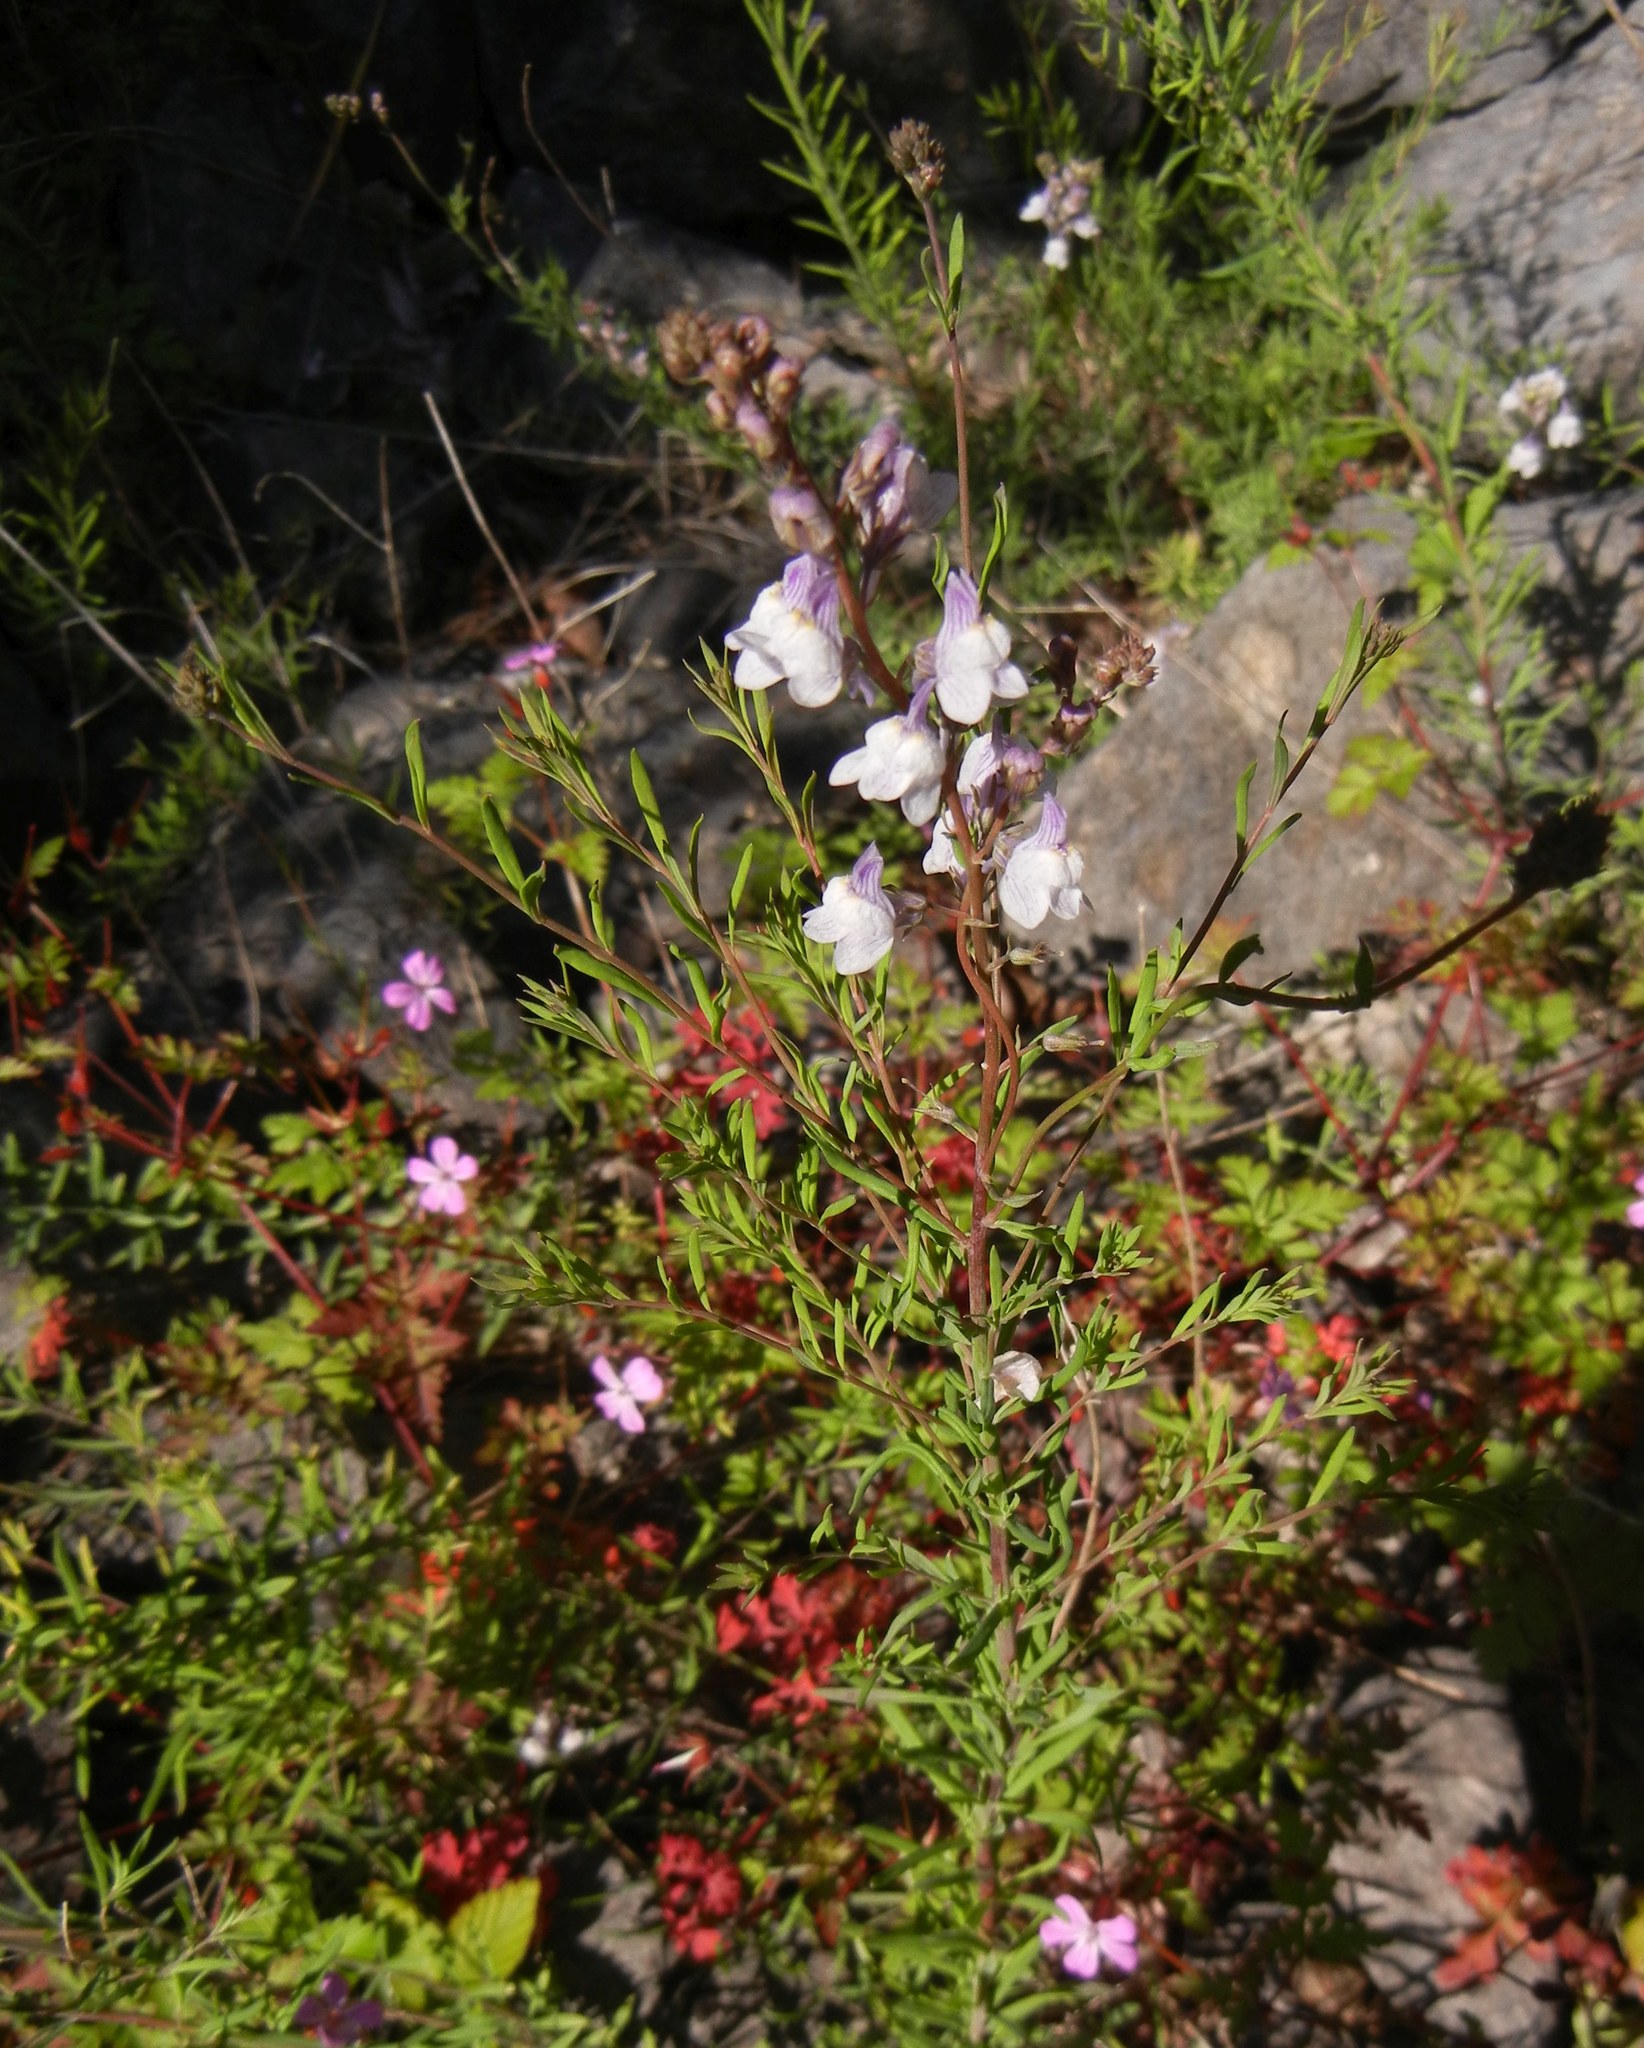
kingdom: Plantae
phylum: Tracheophyta
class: Magnoliopsida
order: Lamiales
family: Plantaginaceae
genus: Linaria
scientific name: Linaria repens
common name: Pale toadflax
